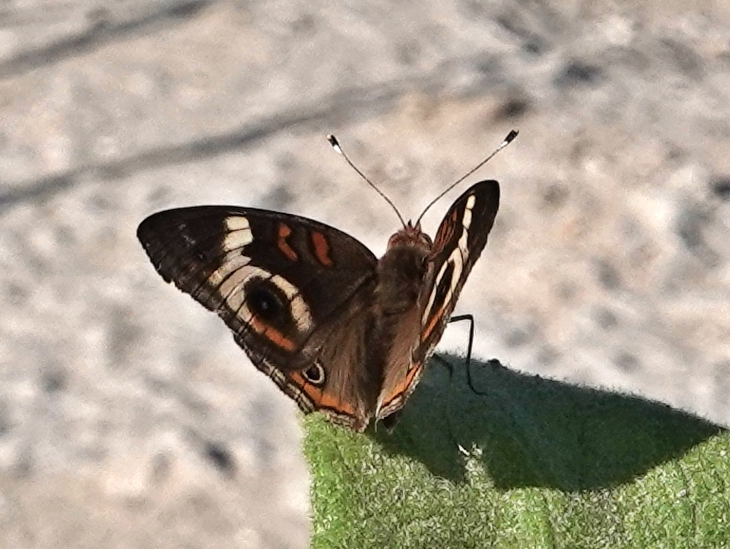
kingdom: Animalia
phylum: Arthropoda
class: Insecta
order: Lepidoptera
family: Nymphalidae
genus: Junonia
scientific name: Junonia coenia
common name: Common buckeye
